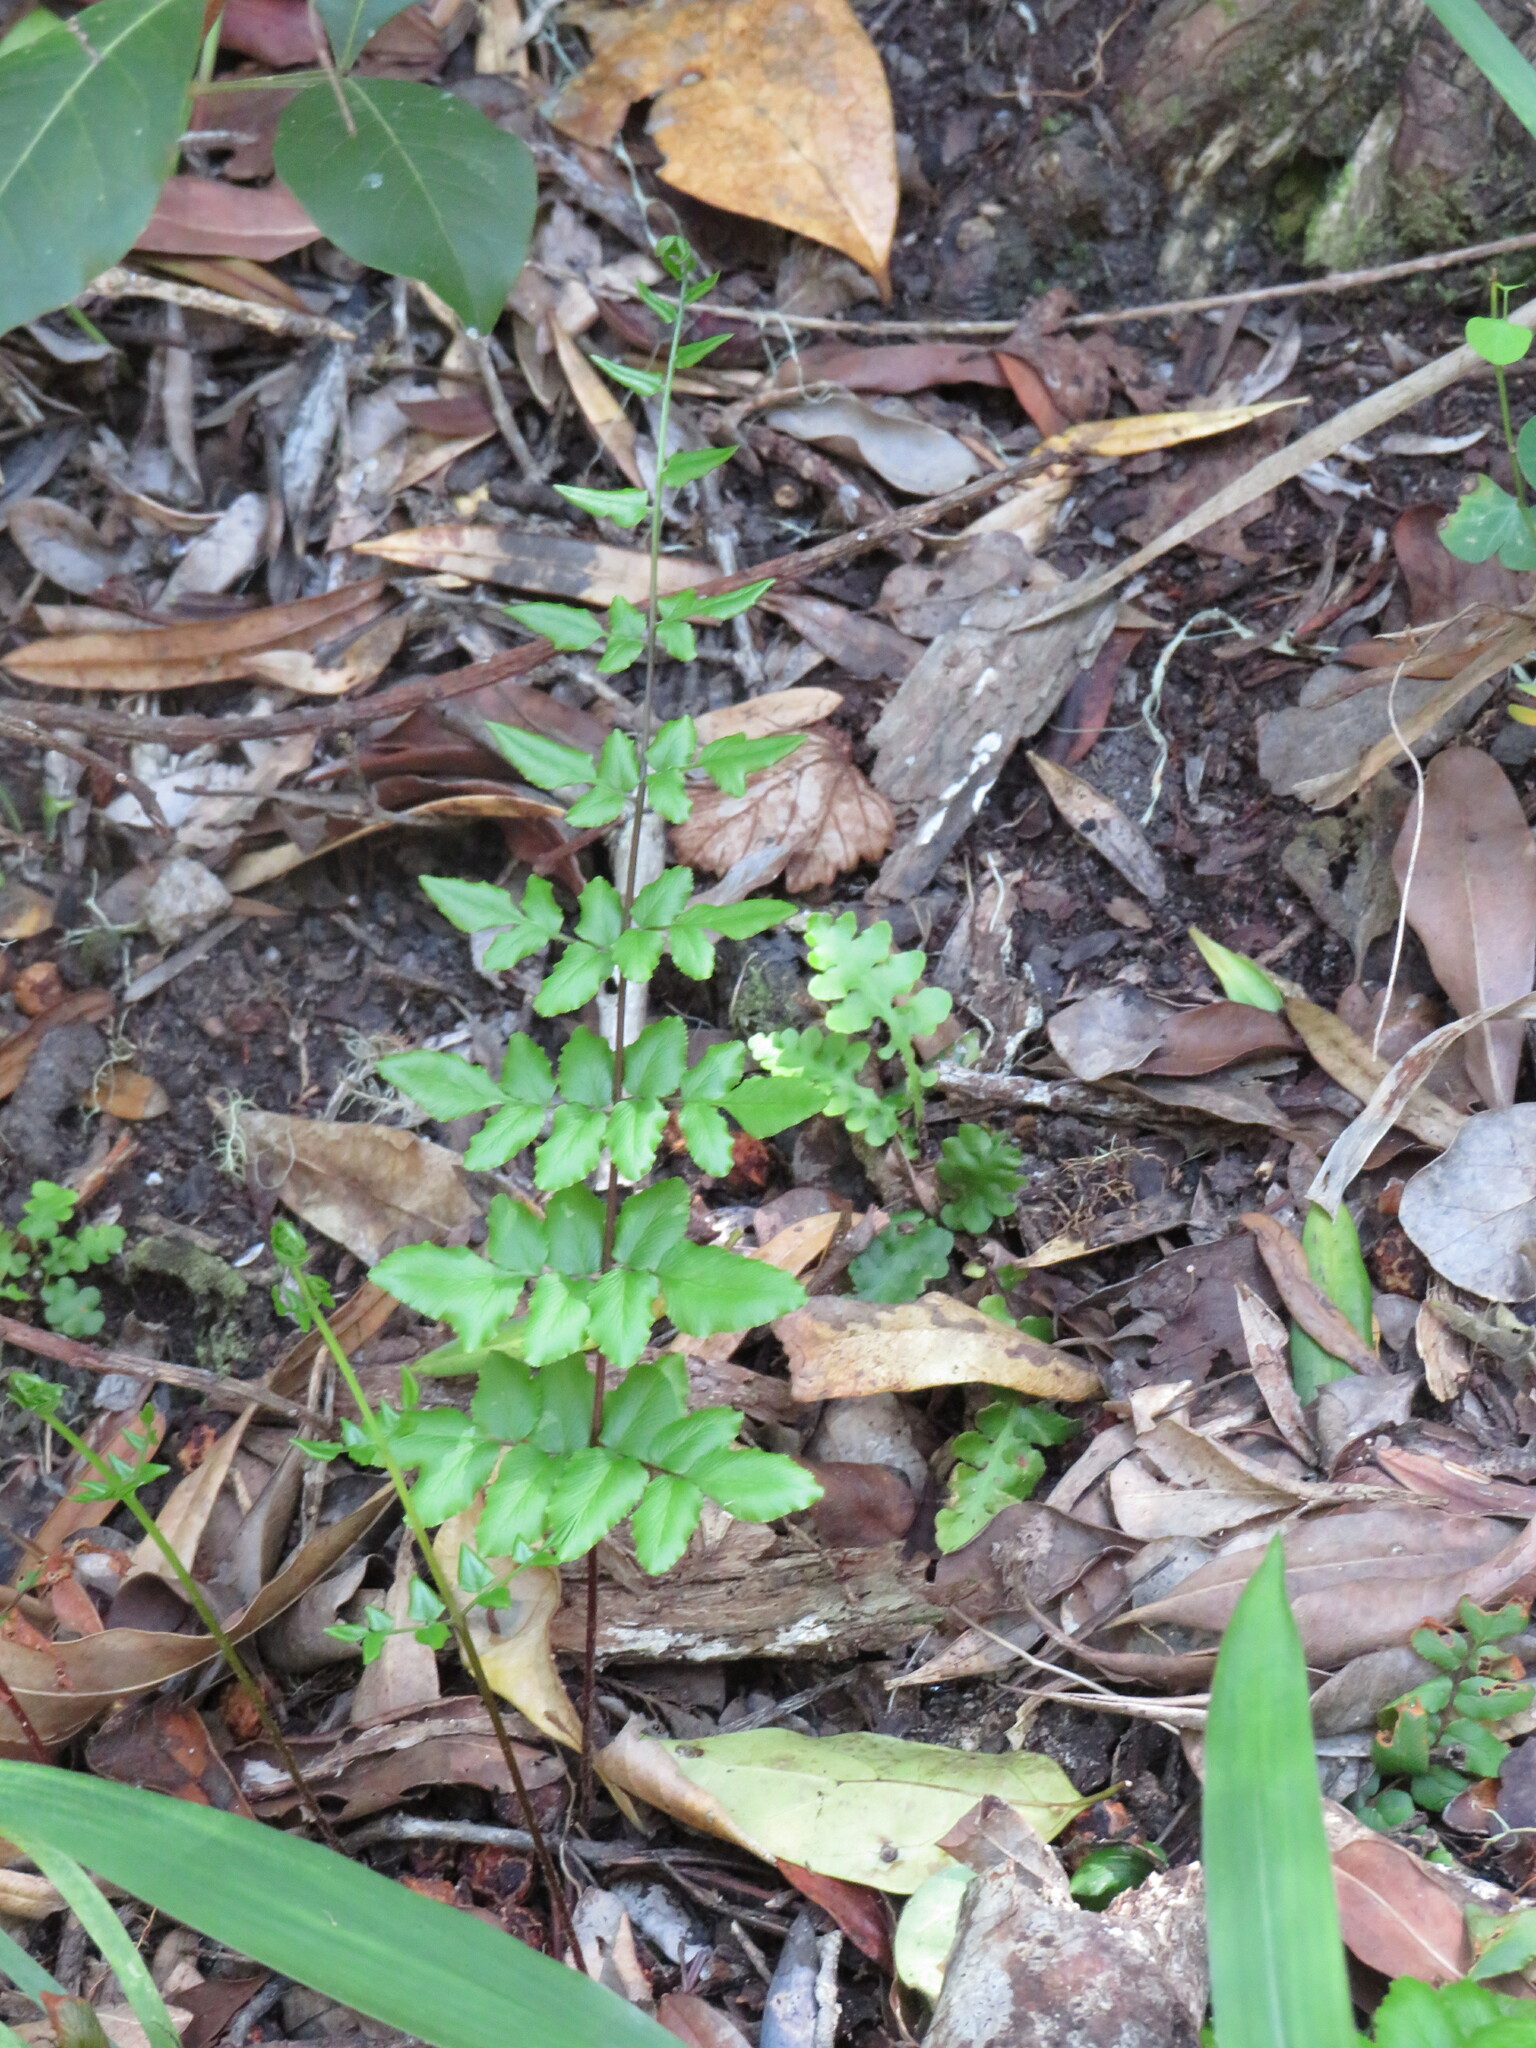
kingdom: Plantae
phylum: Tracheophyta
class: Polypodiopsida
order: Polypodiales
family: Pteridaceae
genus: Cheilanthes
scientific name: Cheilanthes viridis
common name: Green cliffbrake
